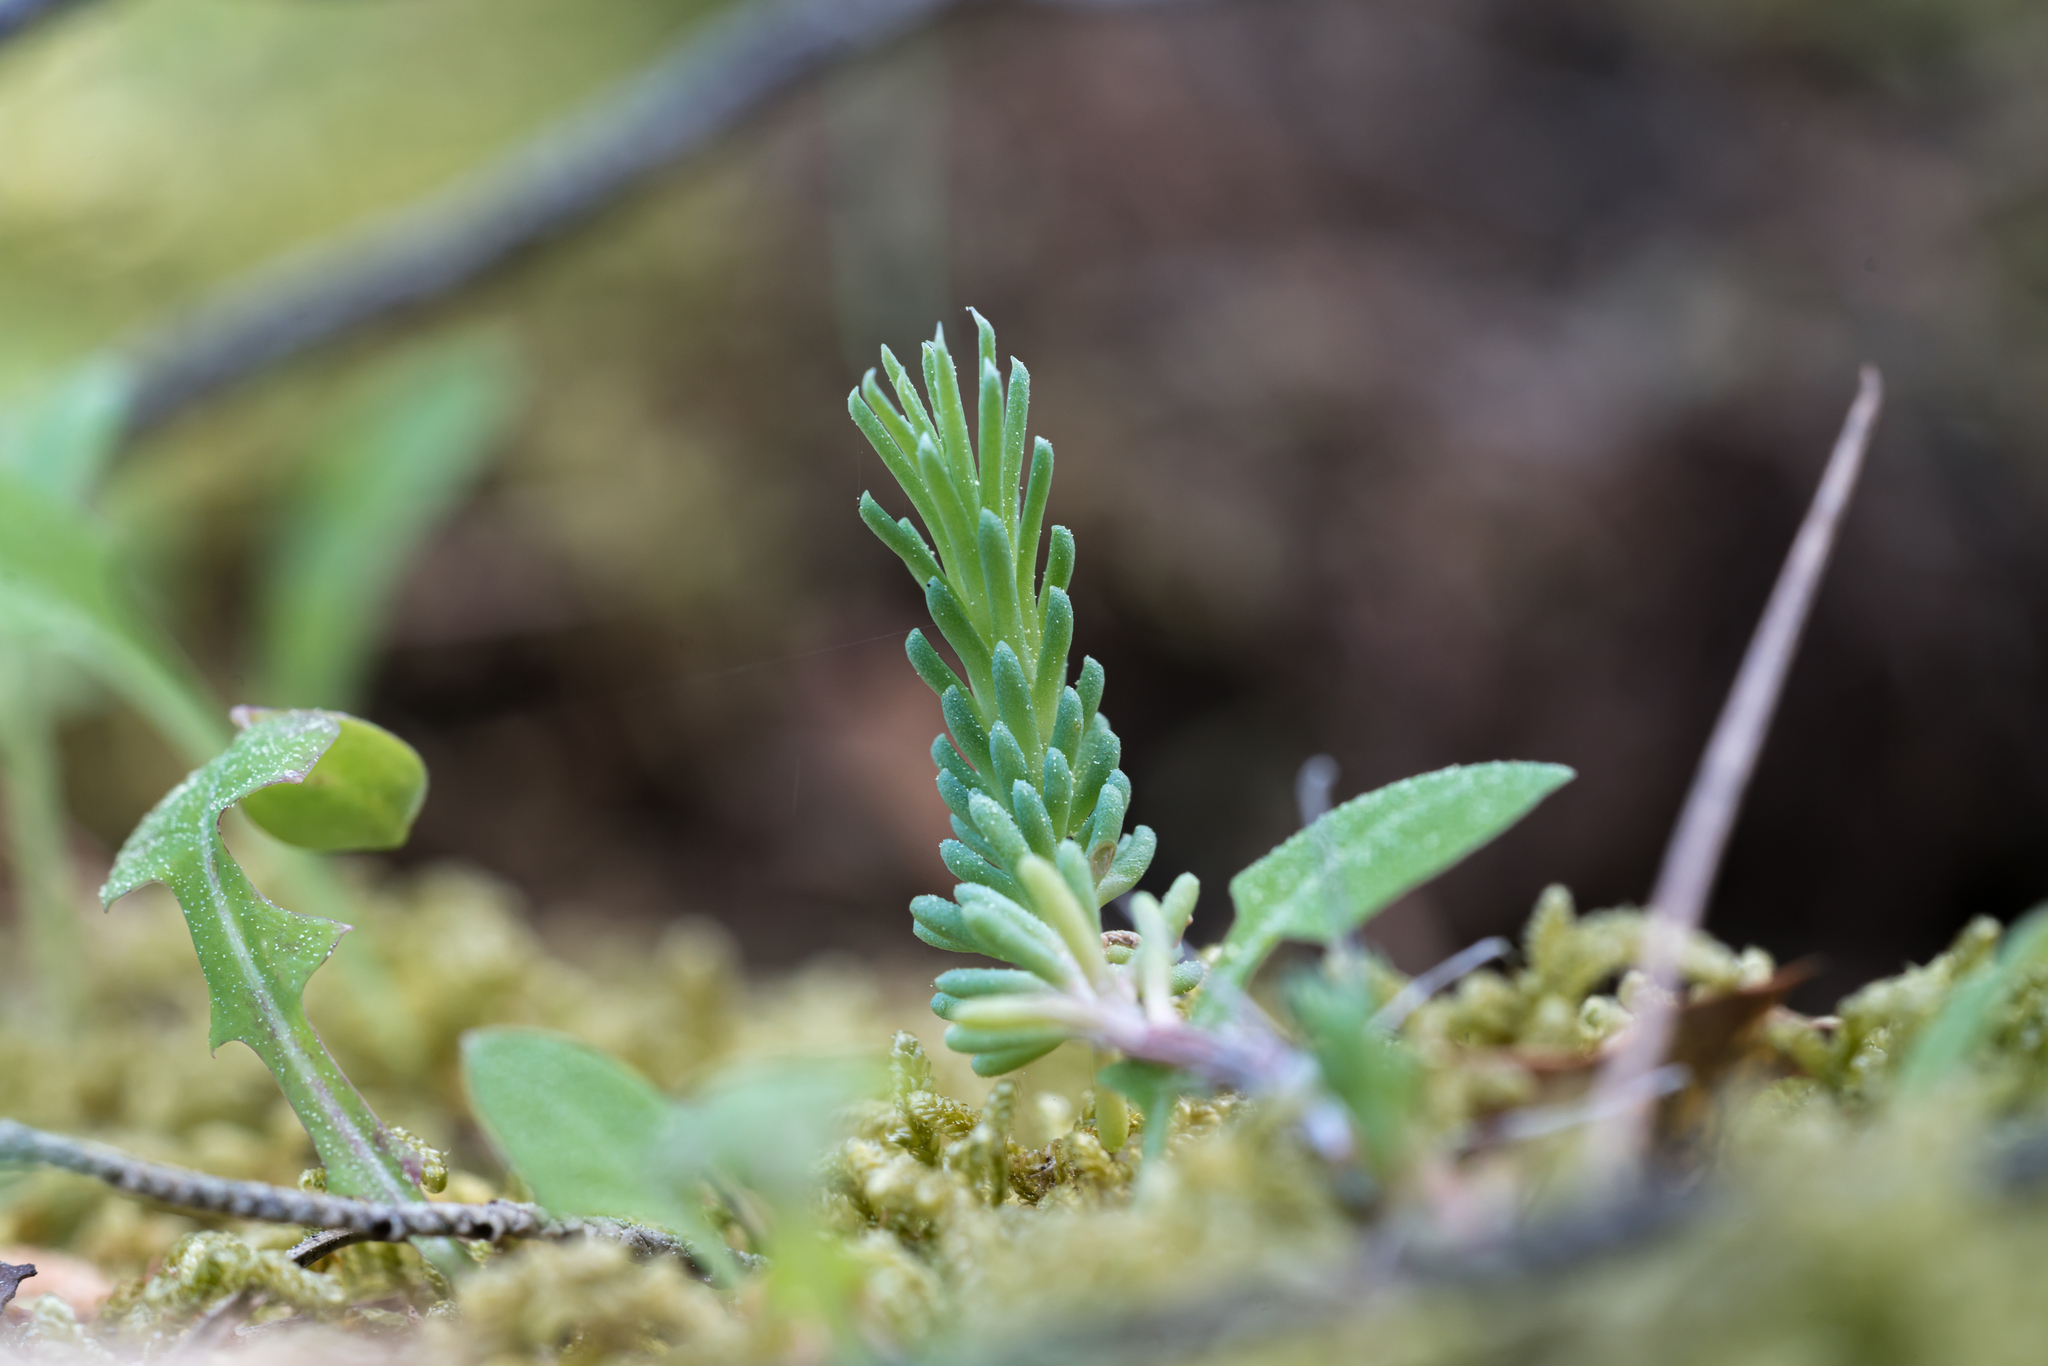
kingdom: Plantae
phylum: Tracheophyta
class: Magnoliopsida
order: Saxifragales
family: Crassulaceae
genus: Petrosedum
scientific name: Petrosedum tenuifolium
